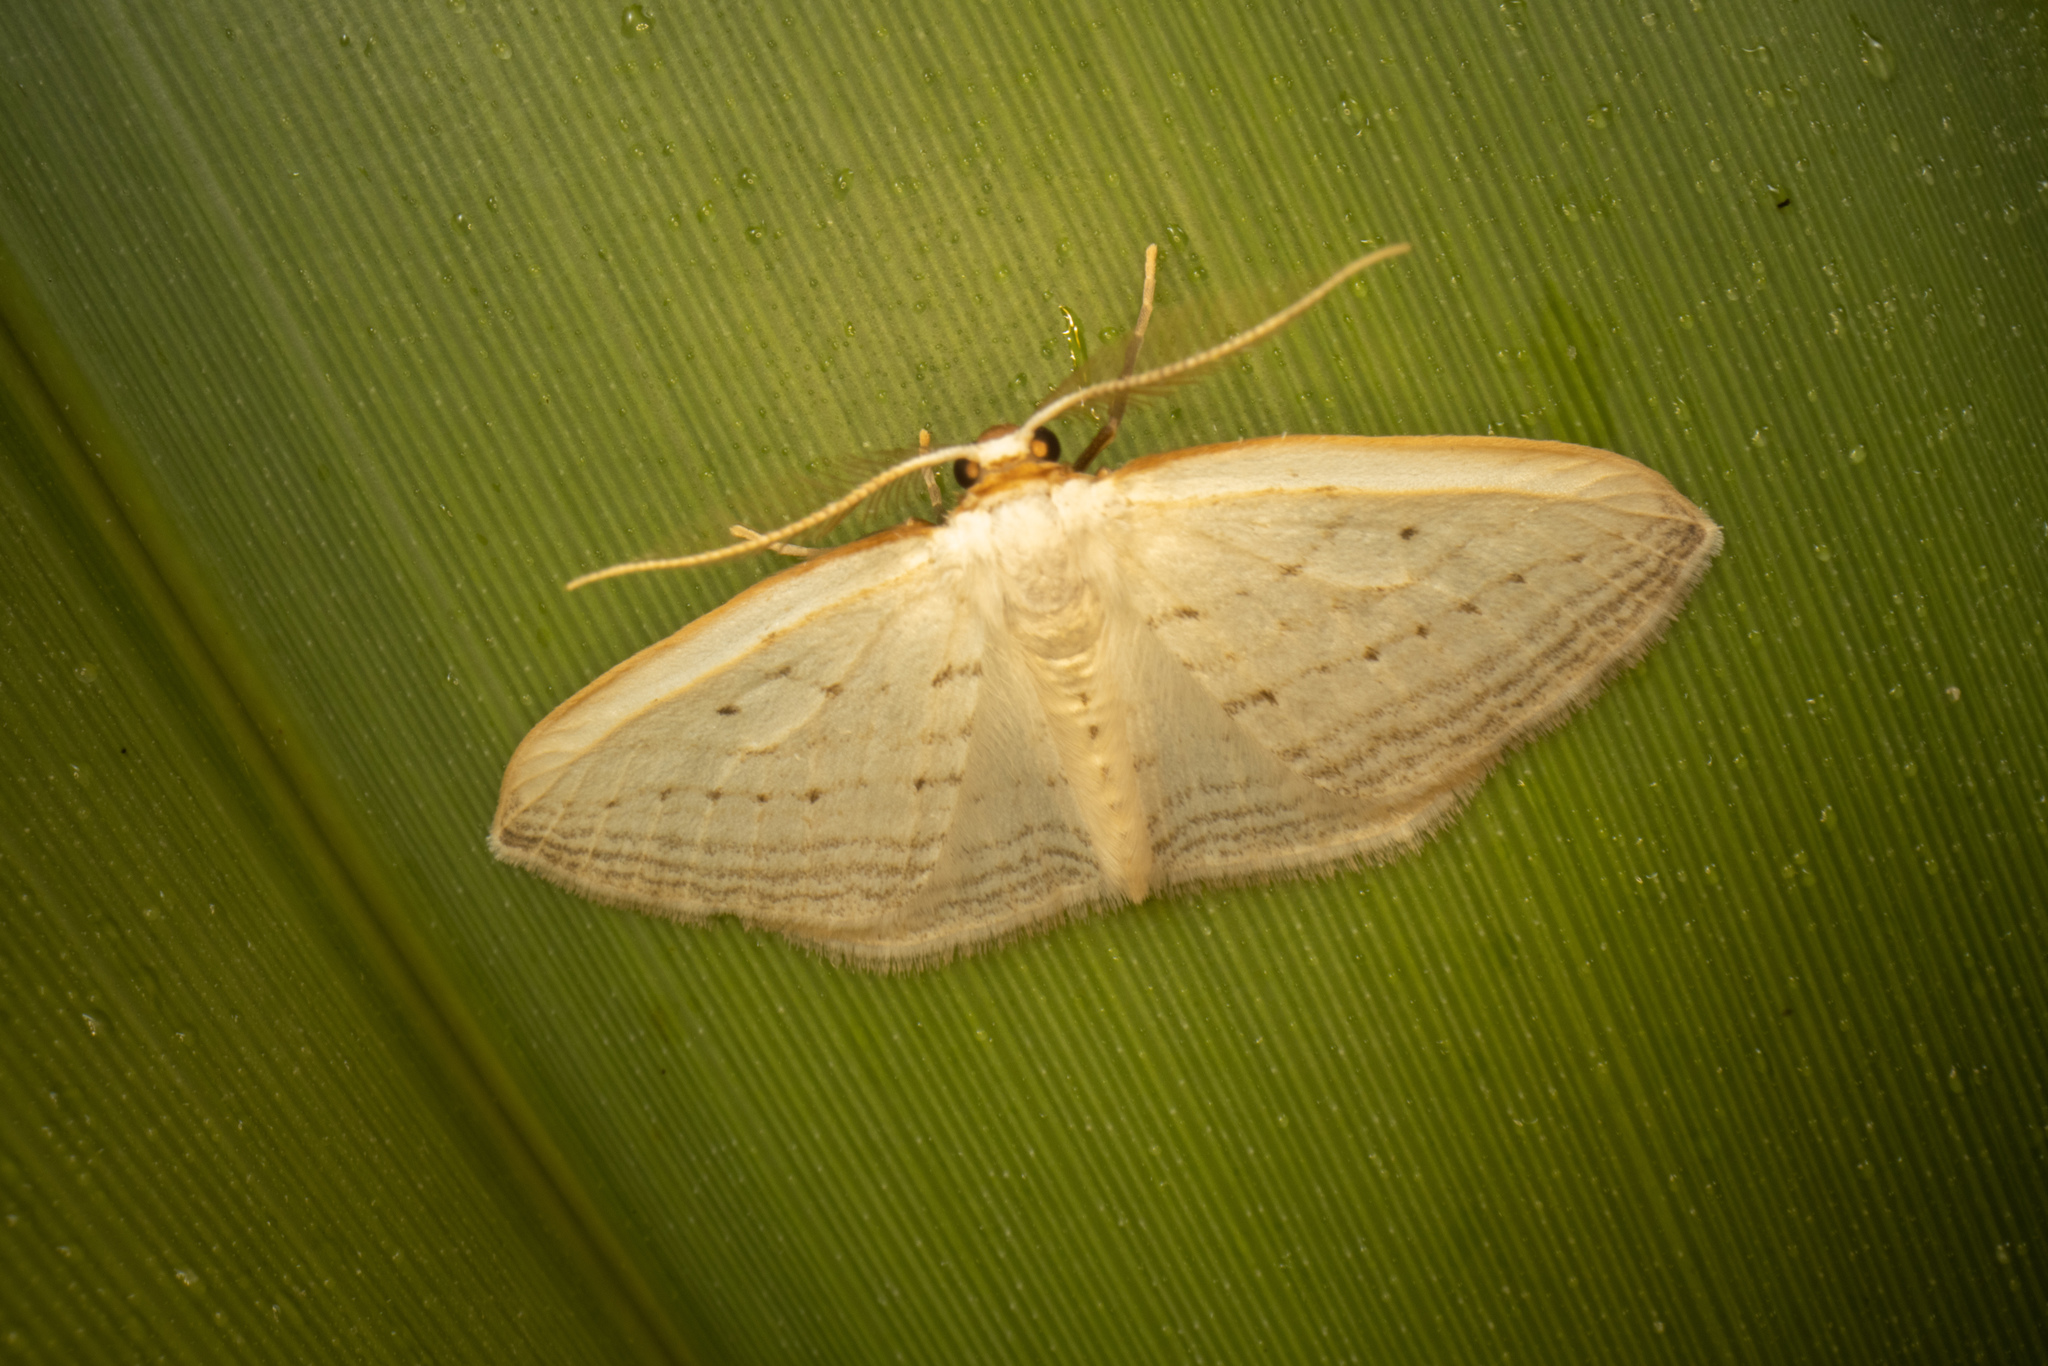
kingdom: Animalia
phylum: Arthropoda
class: Insecta
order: Lepidoptera
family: Geometridae
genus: Orthoclydon
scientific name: Orthoclydon praefectata
